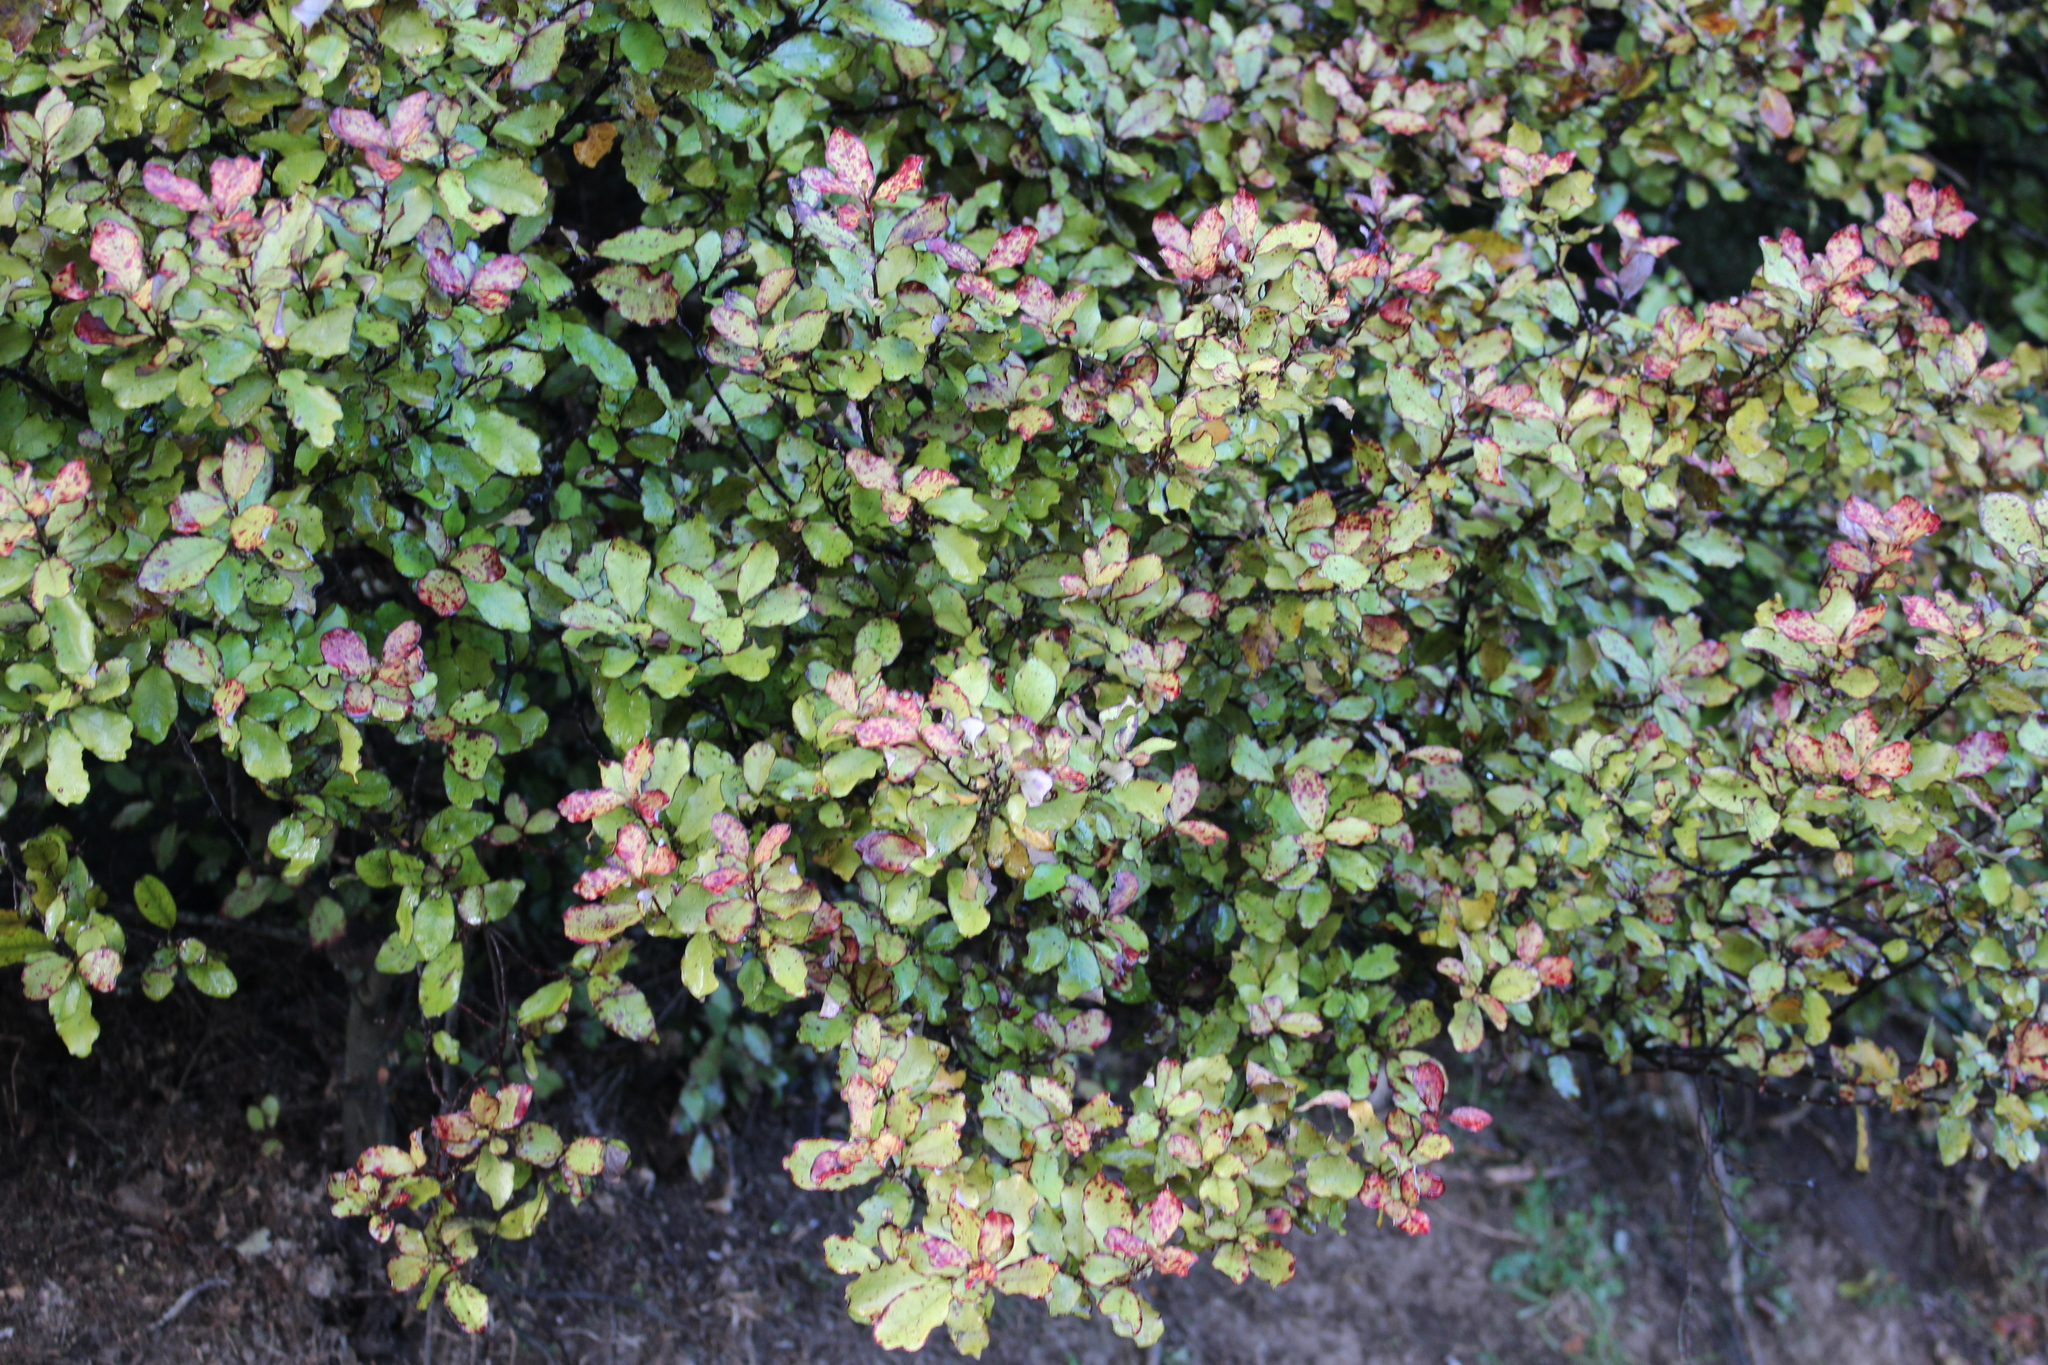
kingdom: Plantae
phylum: Tracheophyta
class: Magnoliopsida
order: Canellales
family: Winteraceae
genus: Pseudowintera
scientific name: Pseudowintera colorata
